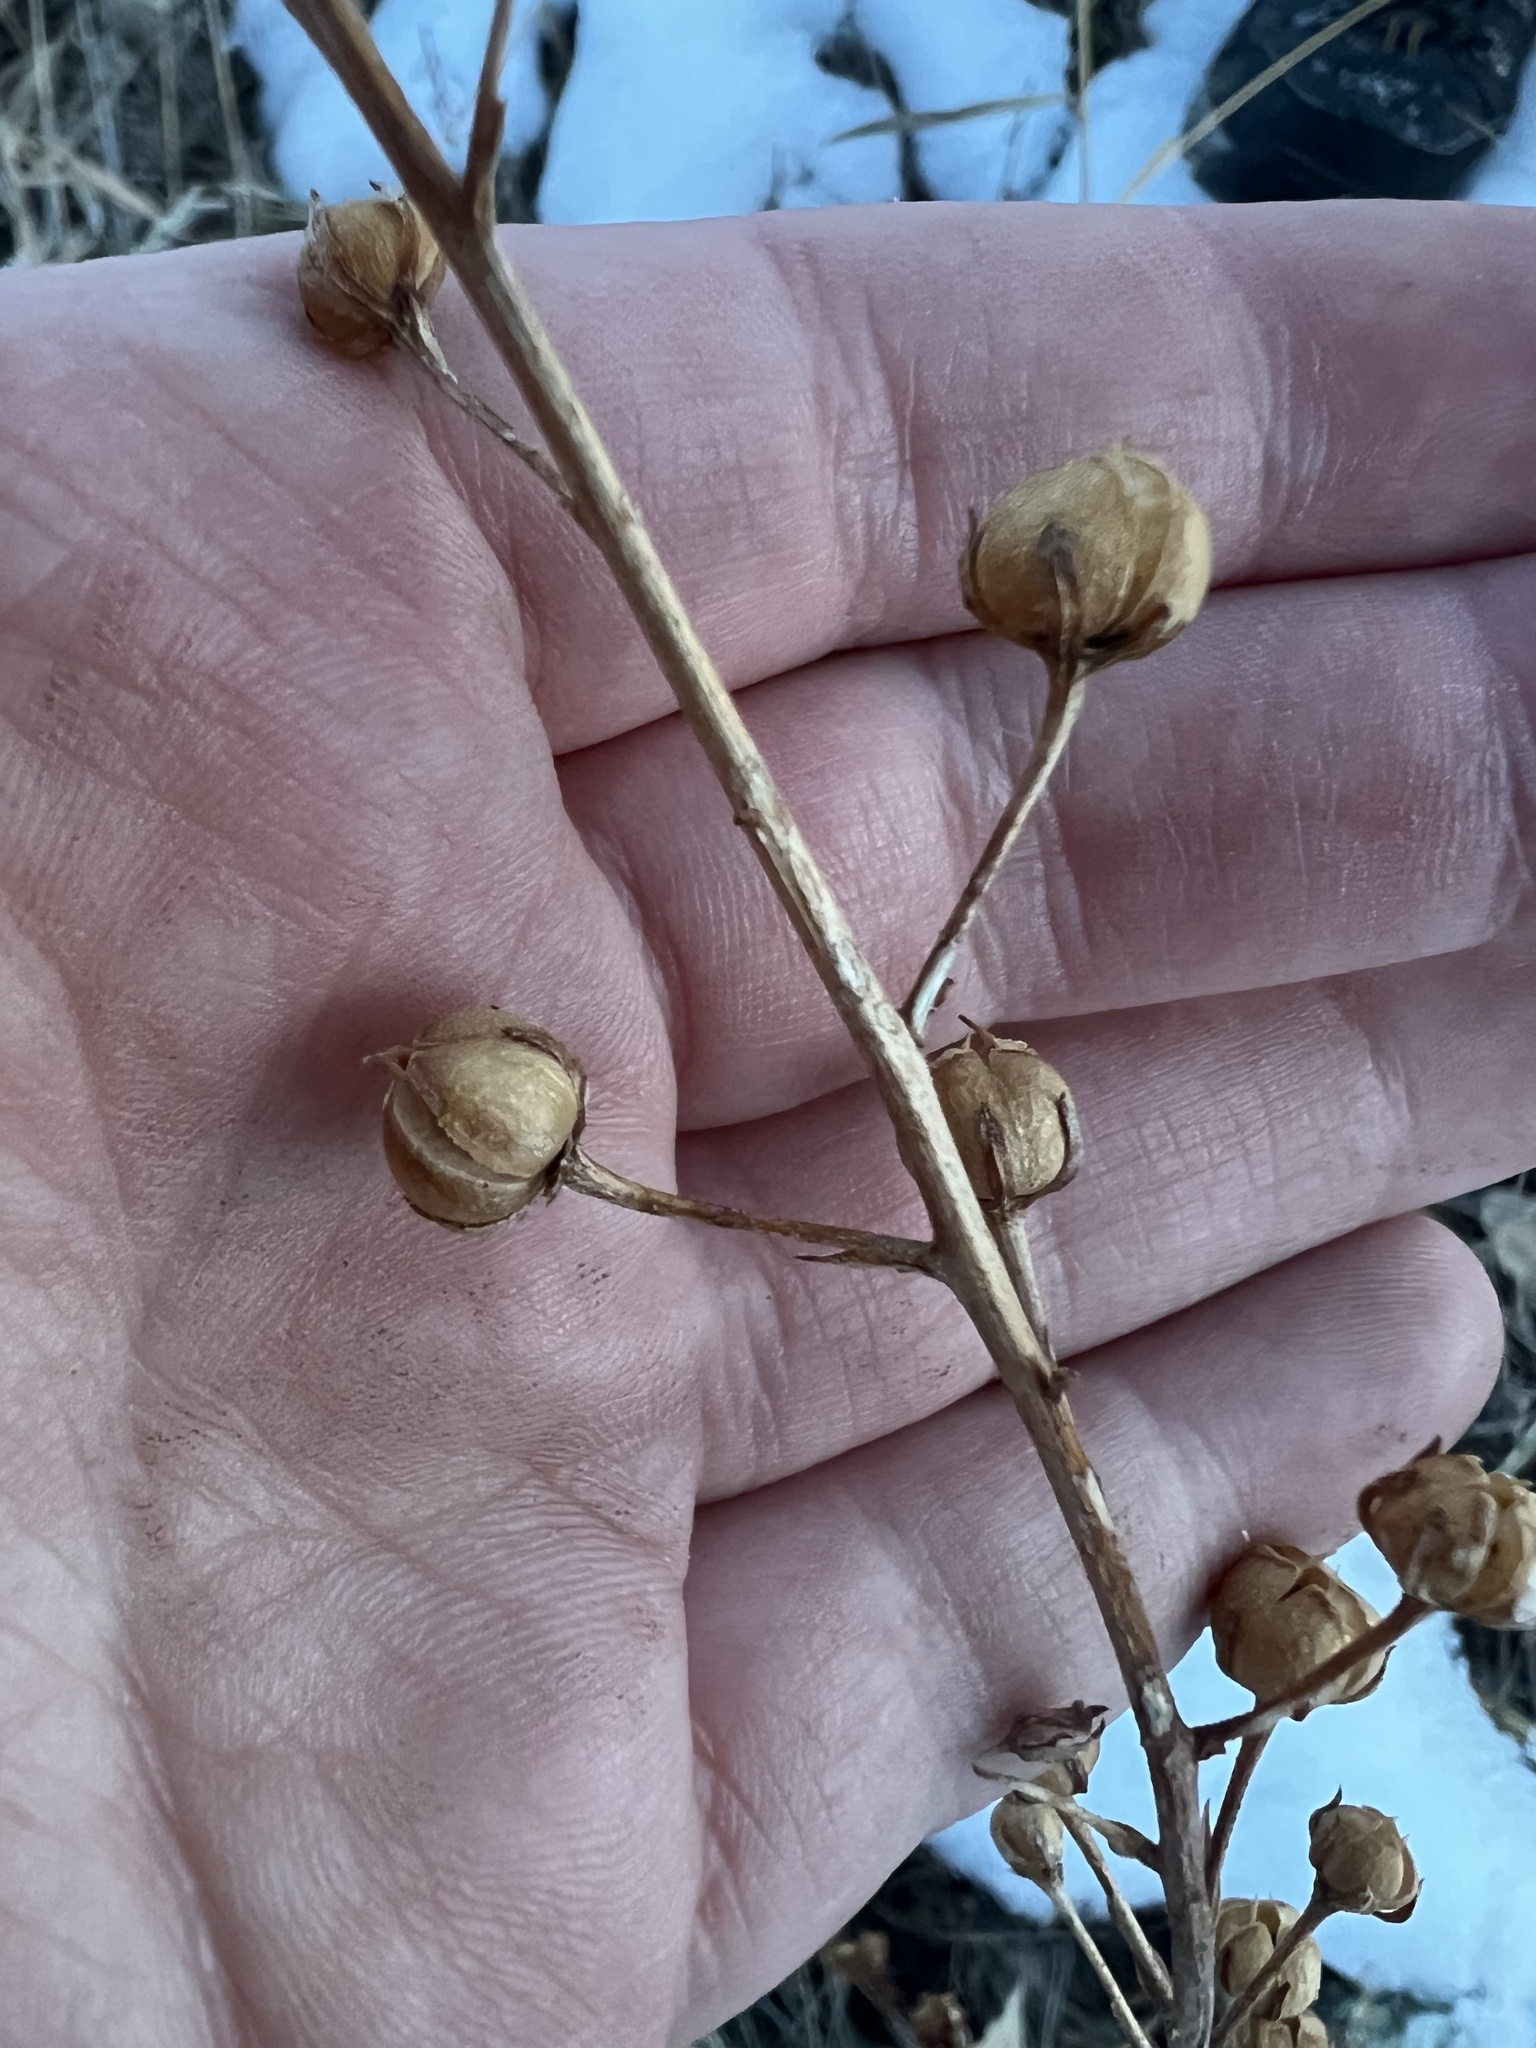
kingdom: Plantae
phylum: Tracheophyta
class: Magnoliopsida
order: Lamiales
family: Scrophulariaceae
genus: Verbascum
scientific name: Verbascum blattaria
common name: Moth mullein
